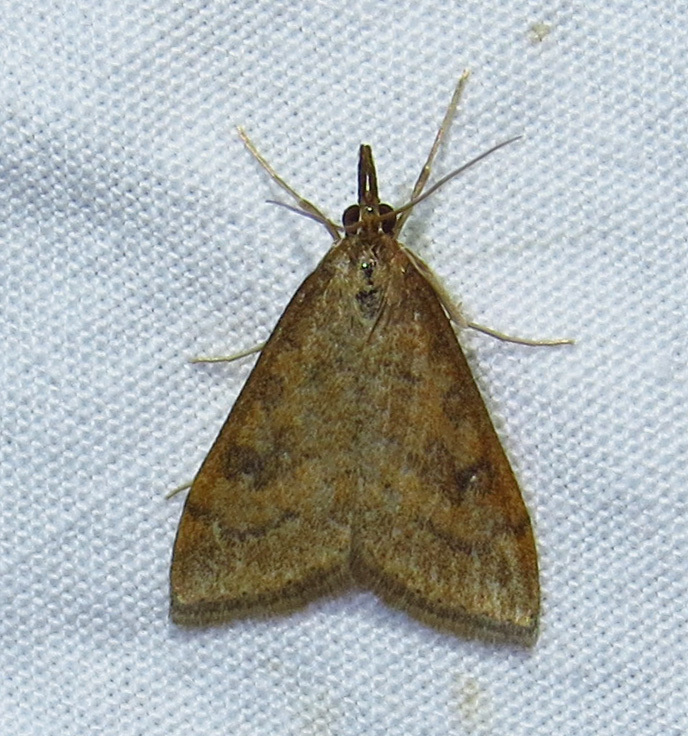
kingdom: Animalia
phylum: Arthropoda
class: Insecta
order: Lepidoptera
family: Crambidae
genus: Udea
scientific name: Udea rubigalis
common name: Celery leaftier moth
